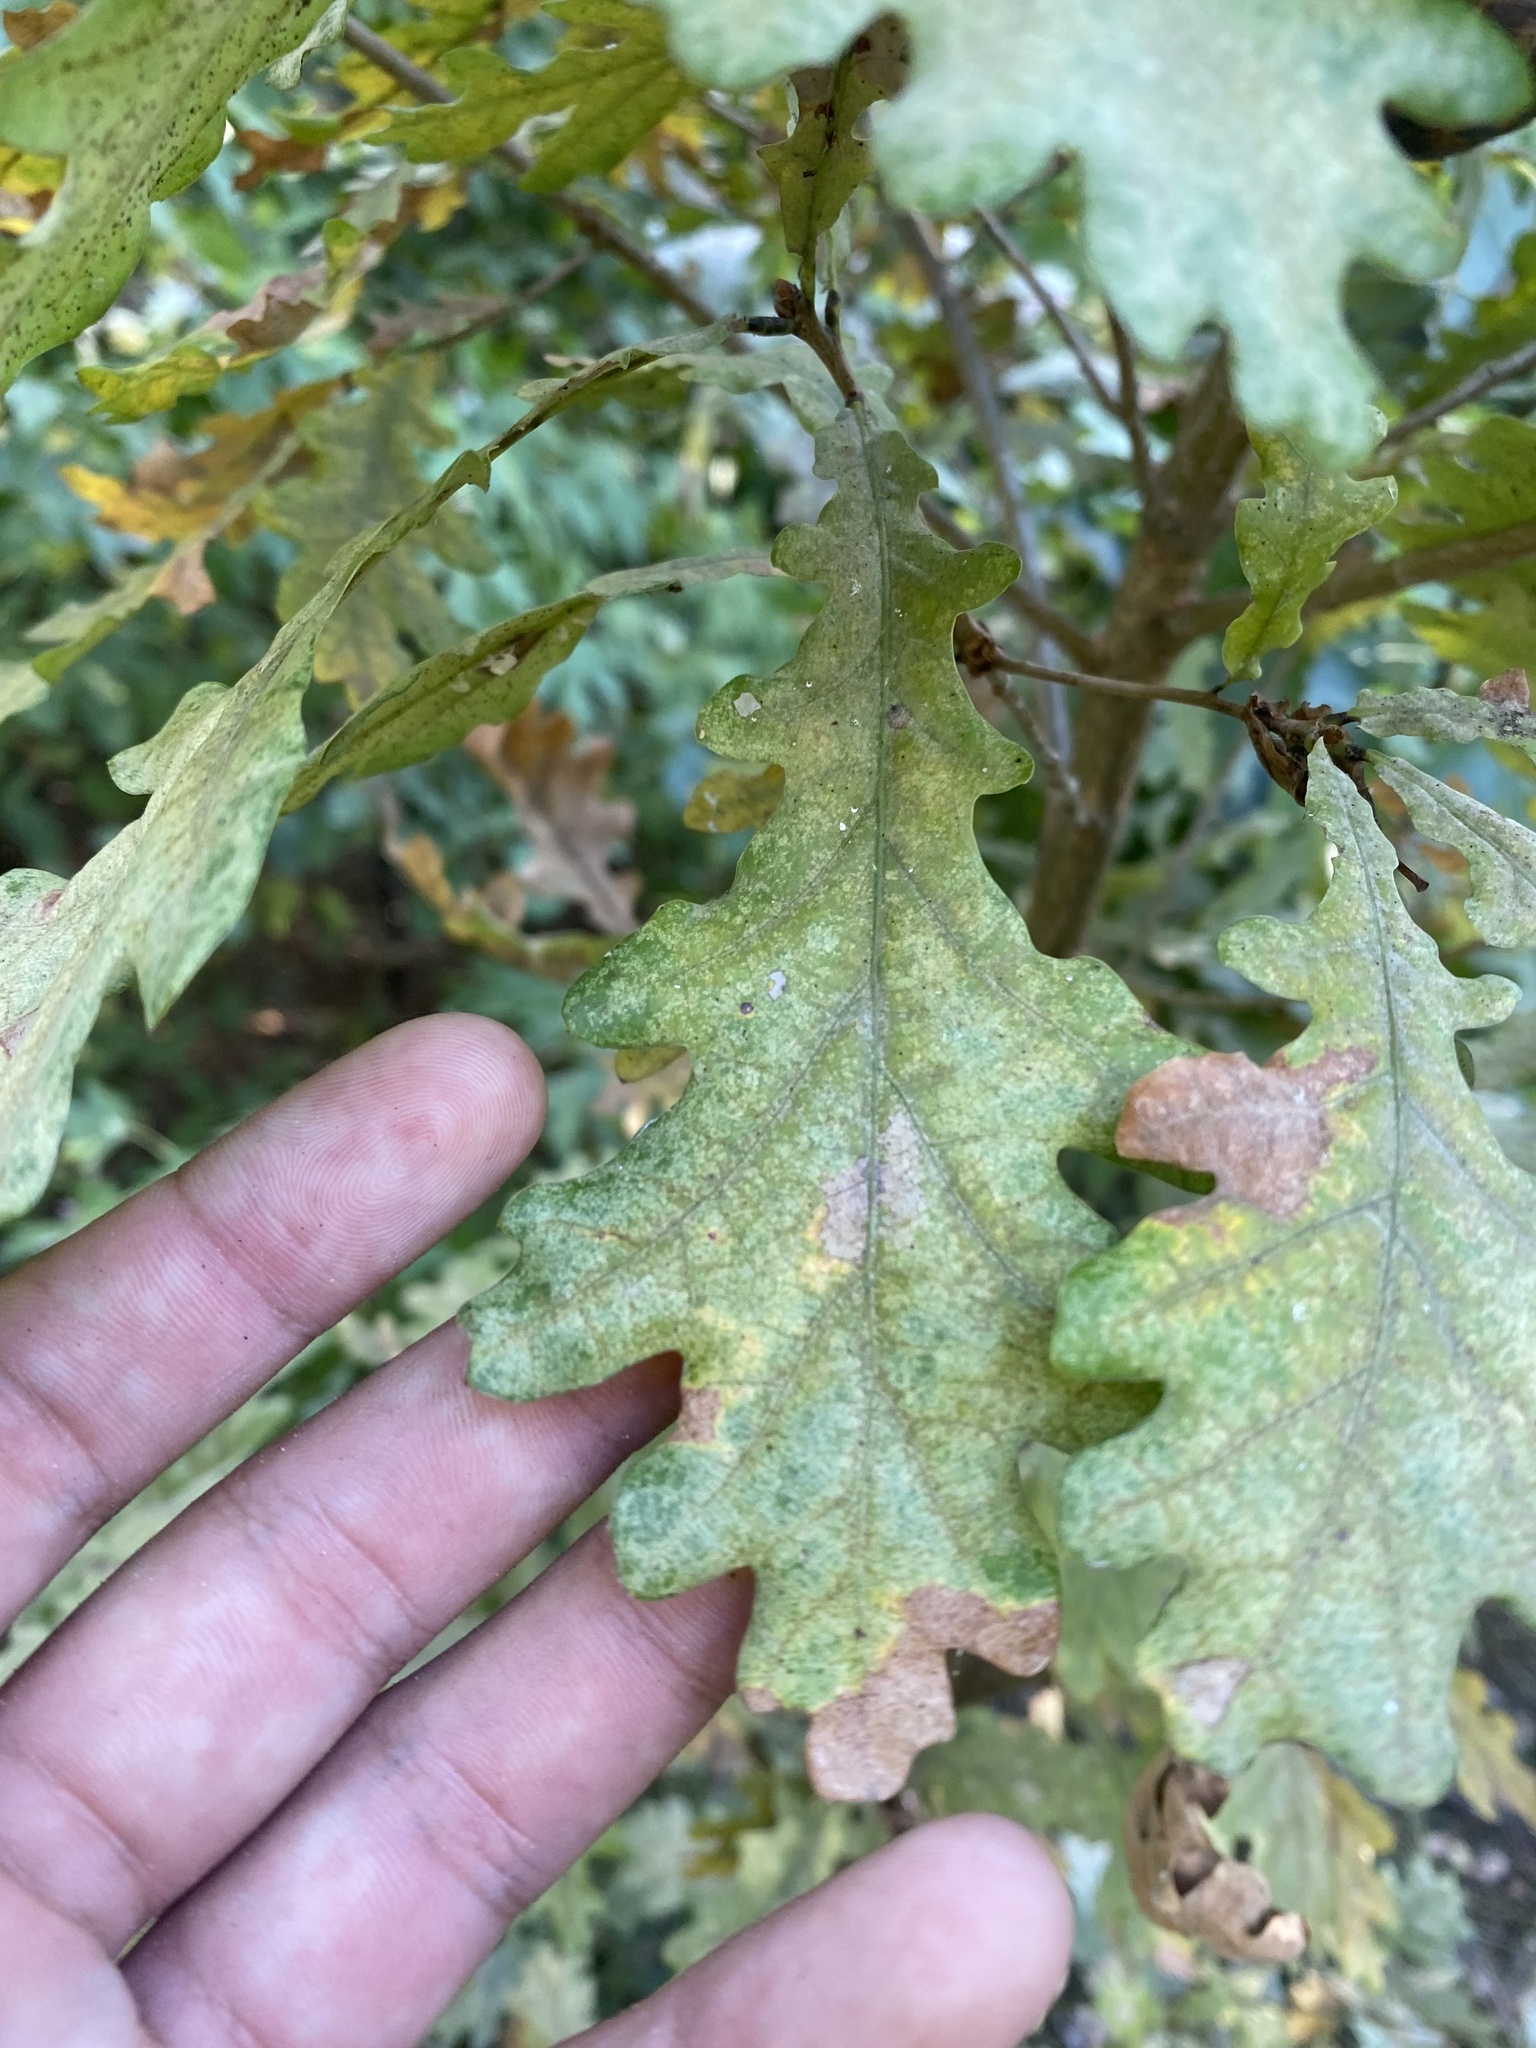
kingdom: Plantae
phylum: Tracheophyta
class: Magnoliopsida
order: Fagales
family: Fagaceae
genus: Quercus
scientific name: Quercus robur
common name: Pedunculate oak
